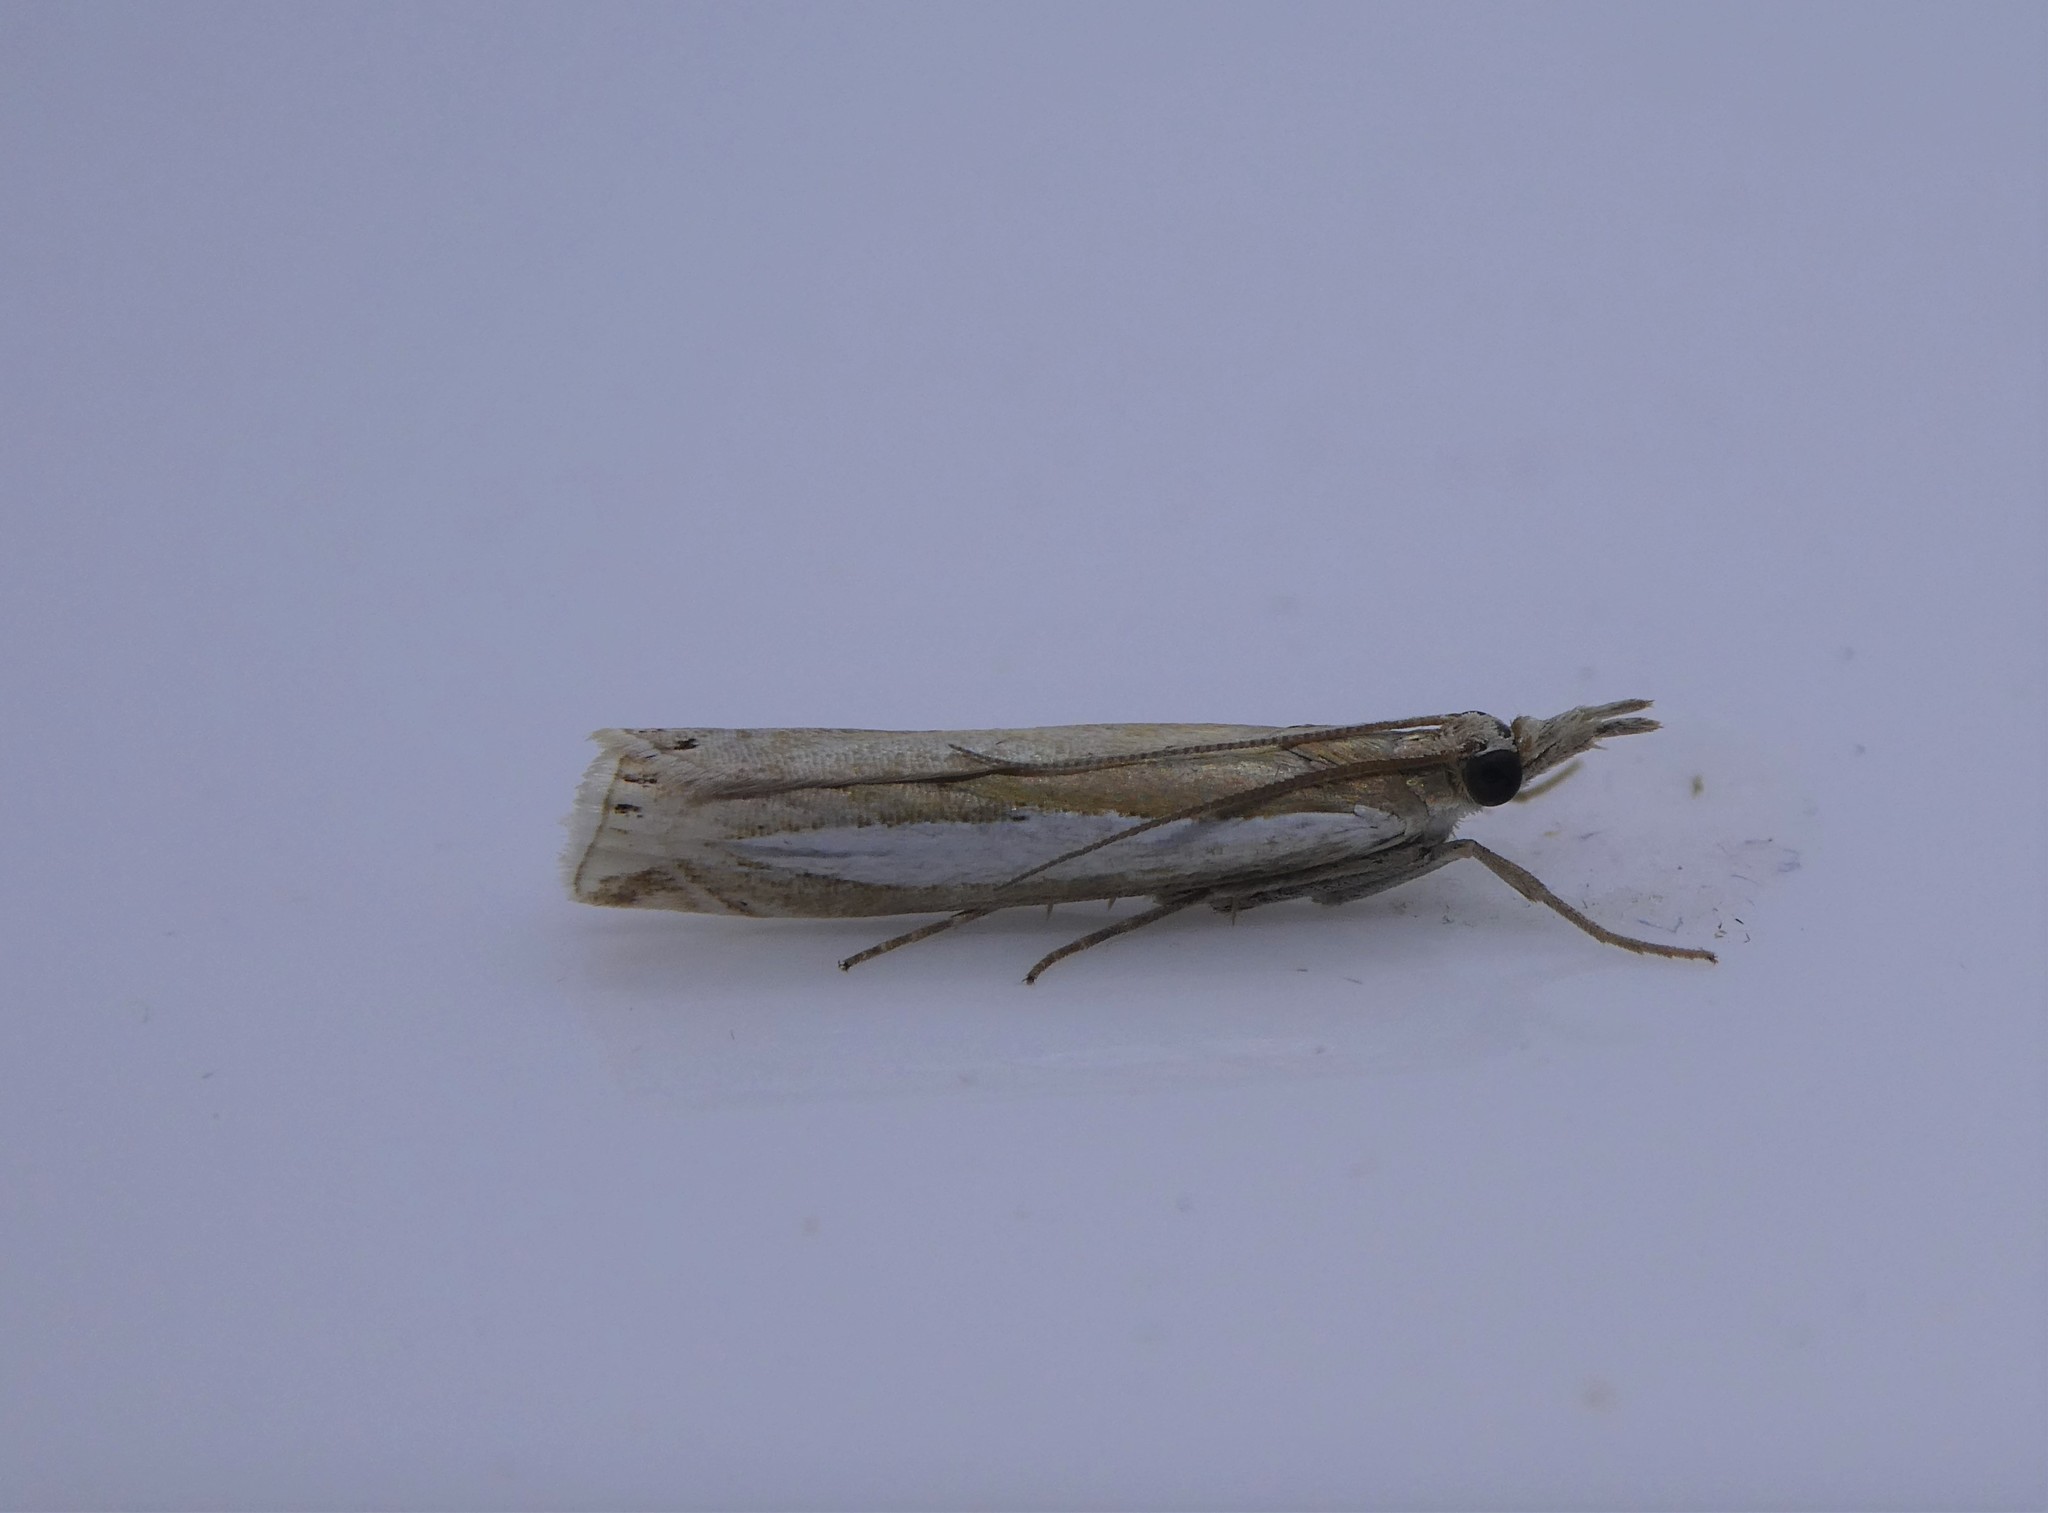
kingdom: Animalia
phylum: Arthropoda
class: Insecta
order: Lepidoptera
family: Crambidae
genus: Crambus
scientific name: Crambus praefectellus
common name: Common grass-veneer
